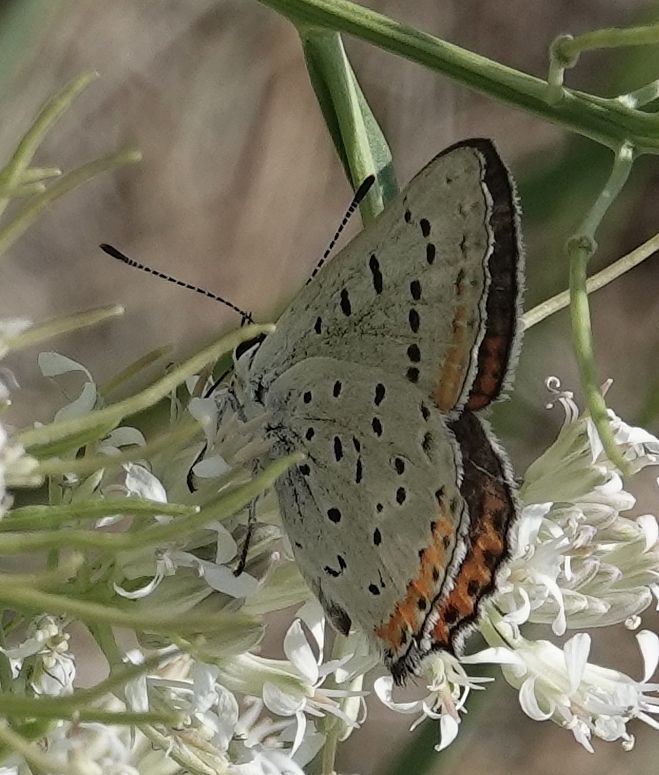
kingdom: Animalia
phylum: Arthropoda
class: Insecta
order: Lepidoptera
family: Lycaenidae
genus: Tharsalea
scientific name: Tharsalea dione
